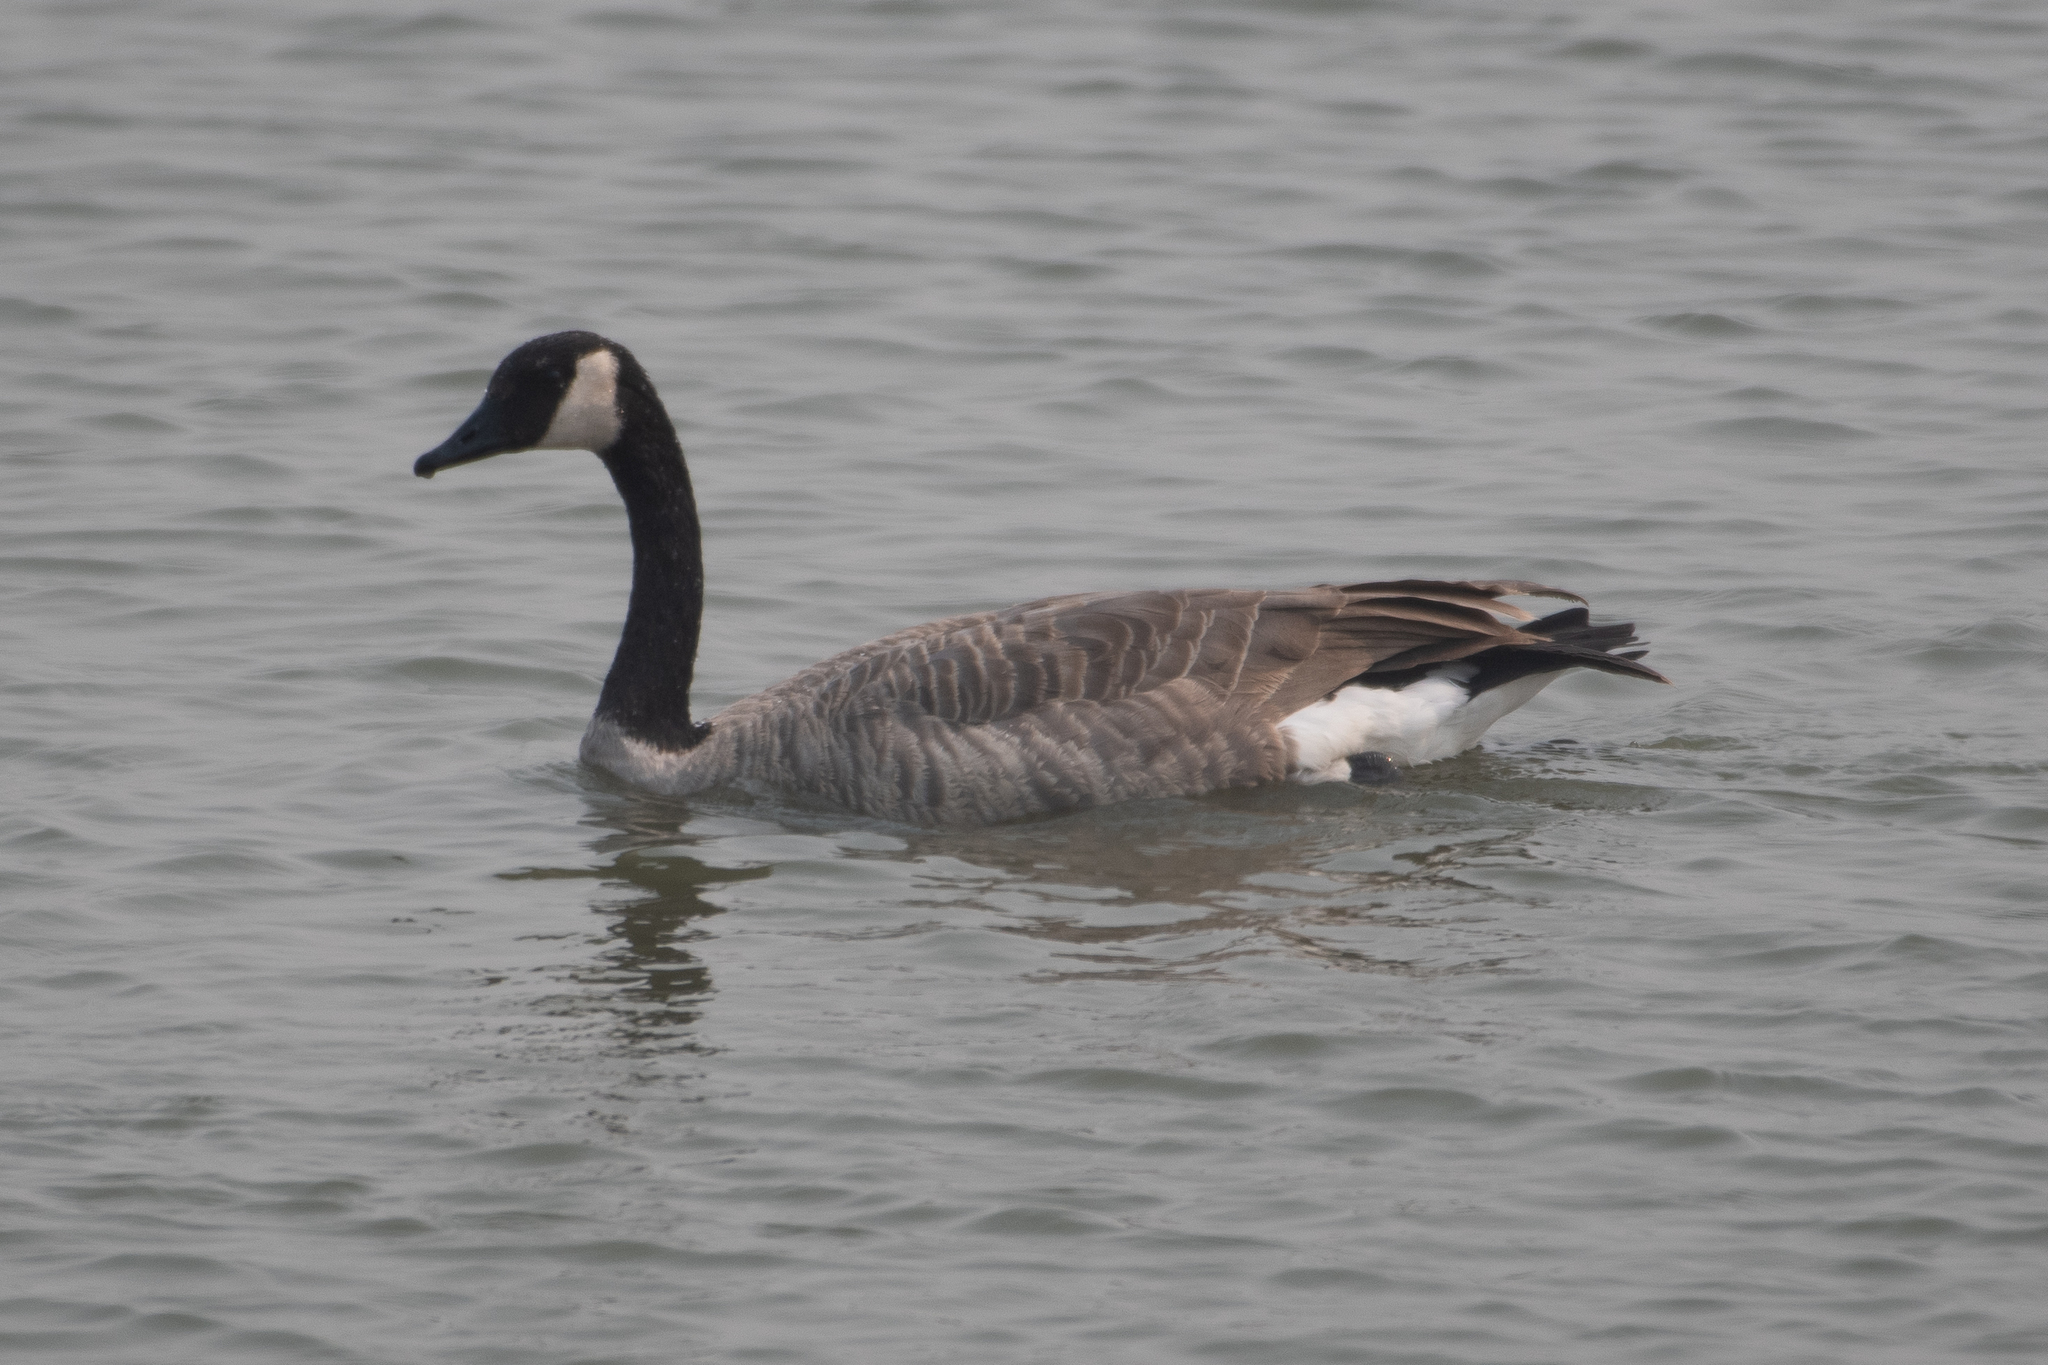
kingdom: Animalia
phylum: Chordata
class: Aves
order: Anseriformes
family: Anatidae
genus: Branta
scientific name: Branta canadensis
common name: Canada goose
